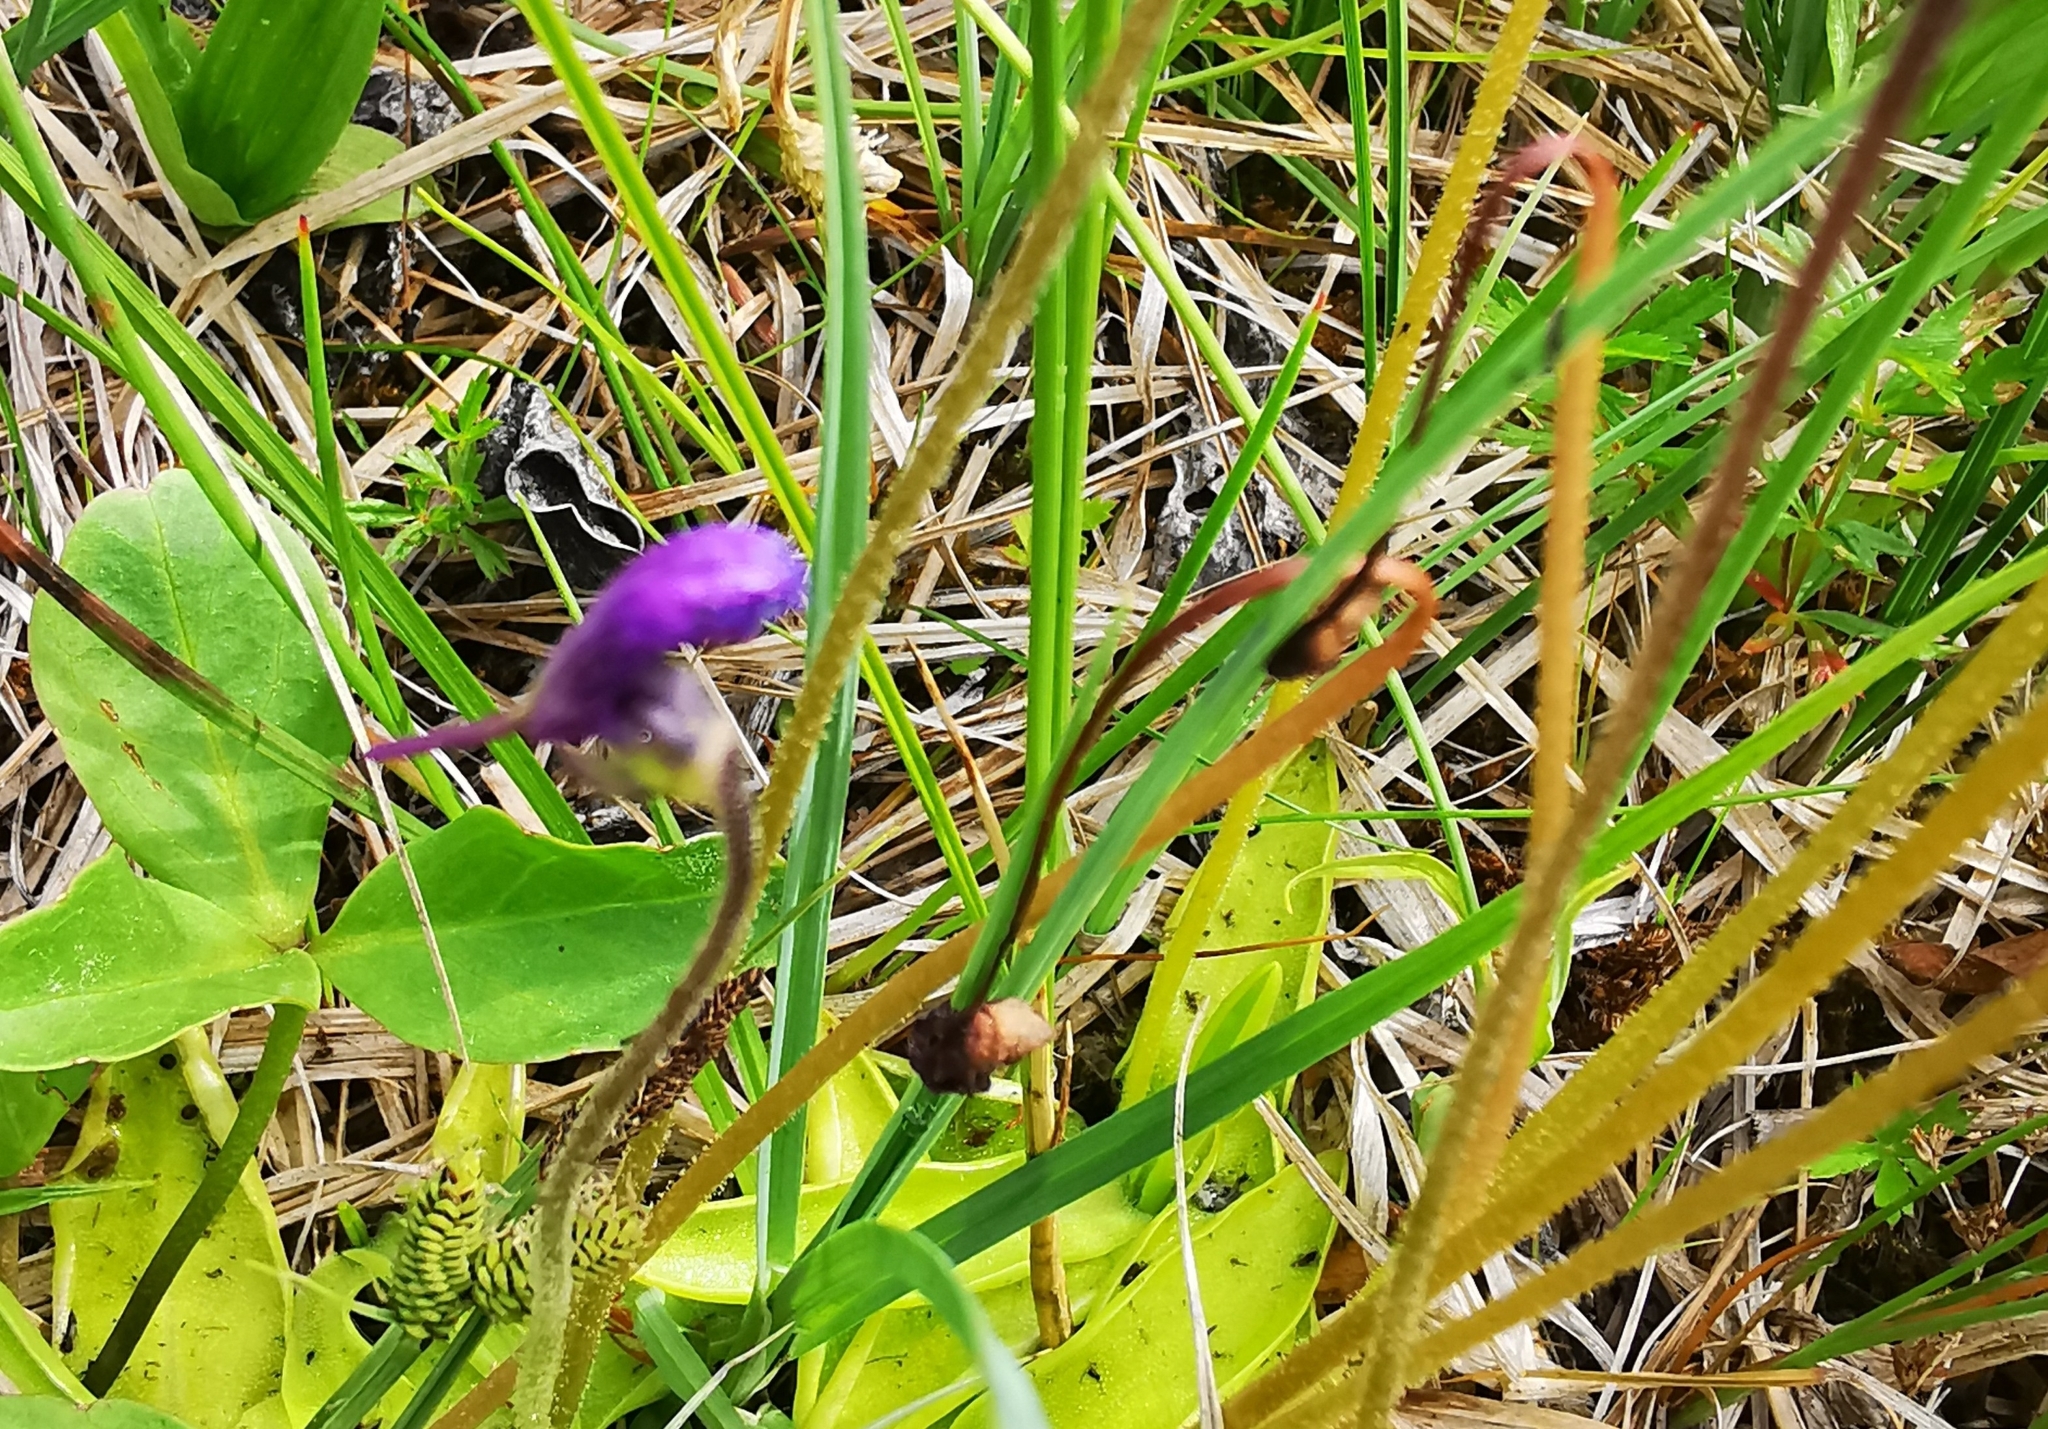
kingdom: Plantae
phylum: Tracheophyta
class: Magnoliopsida
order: Lamiales
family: Lentibulariaceae
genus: Pinguicula
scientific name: Pinguicula vulgaris
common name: Common butterwort
